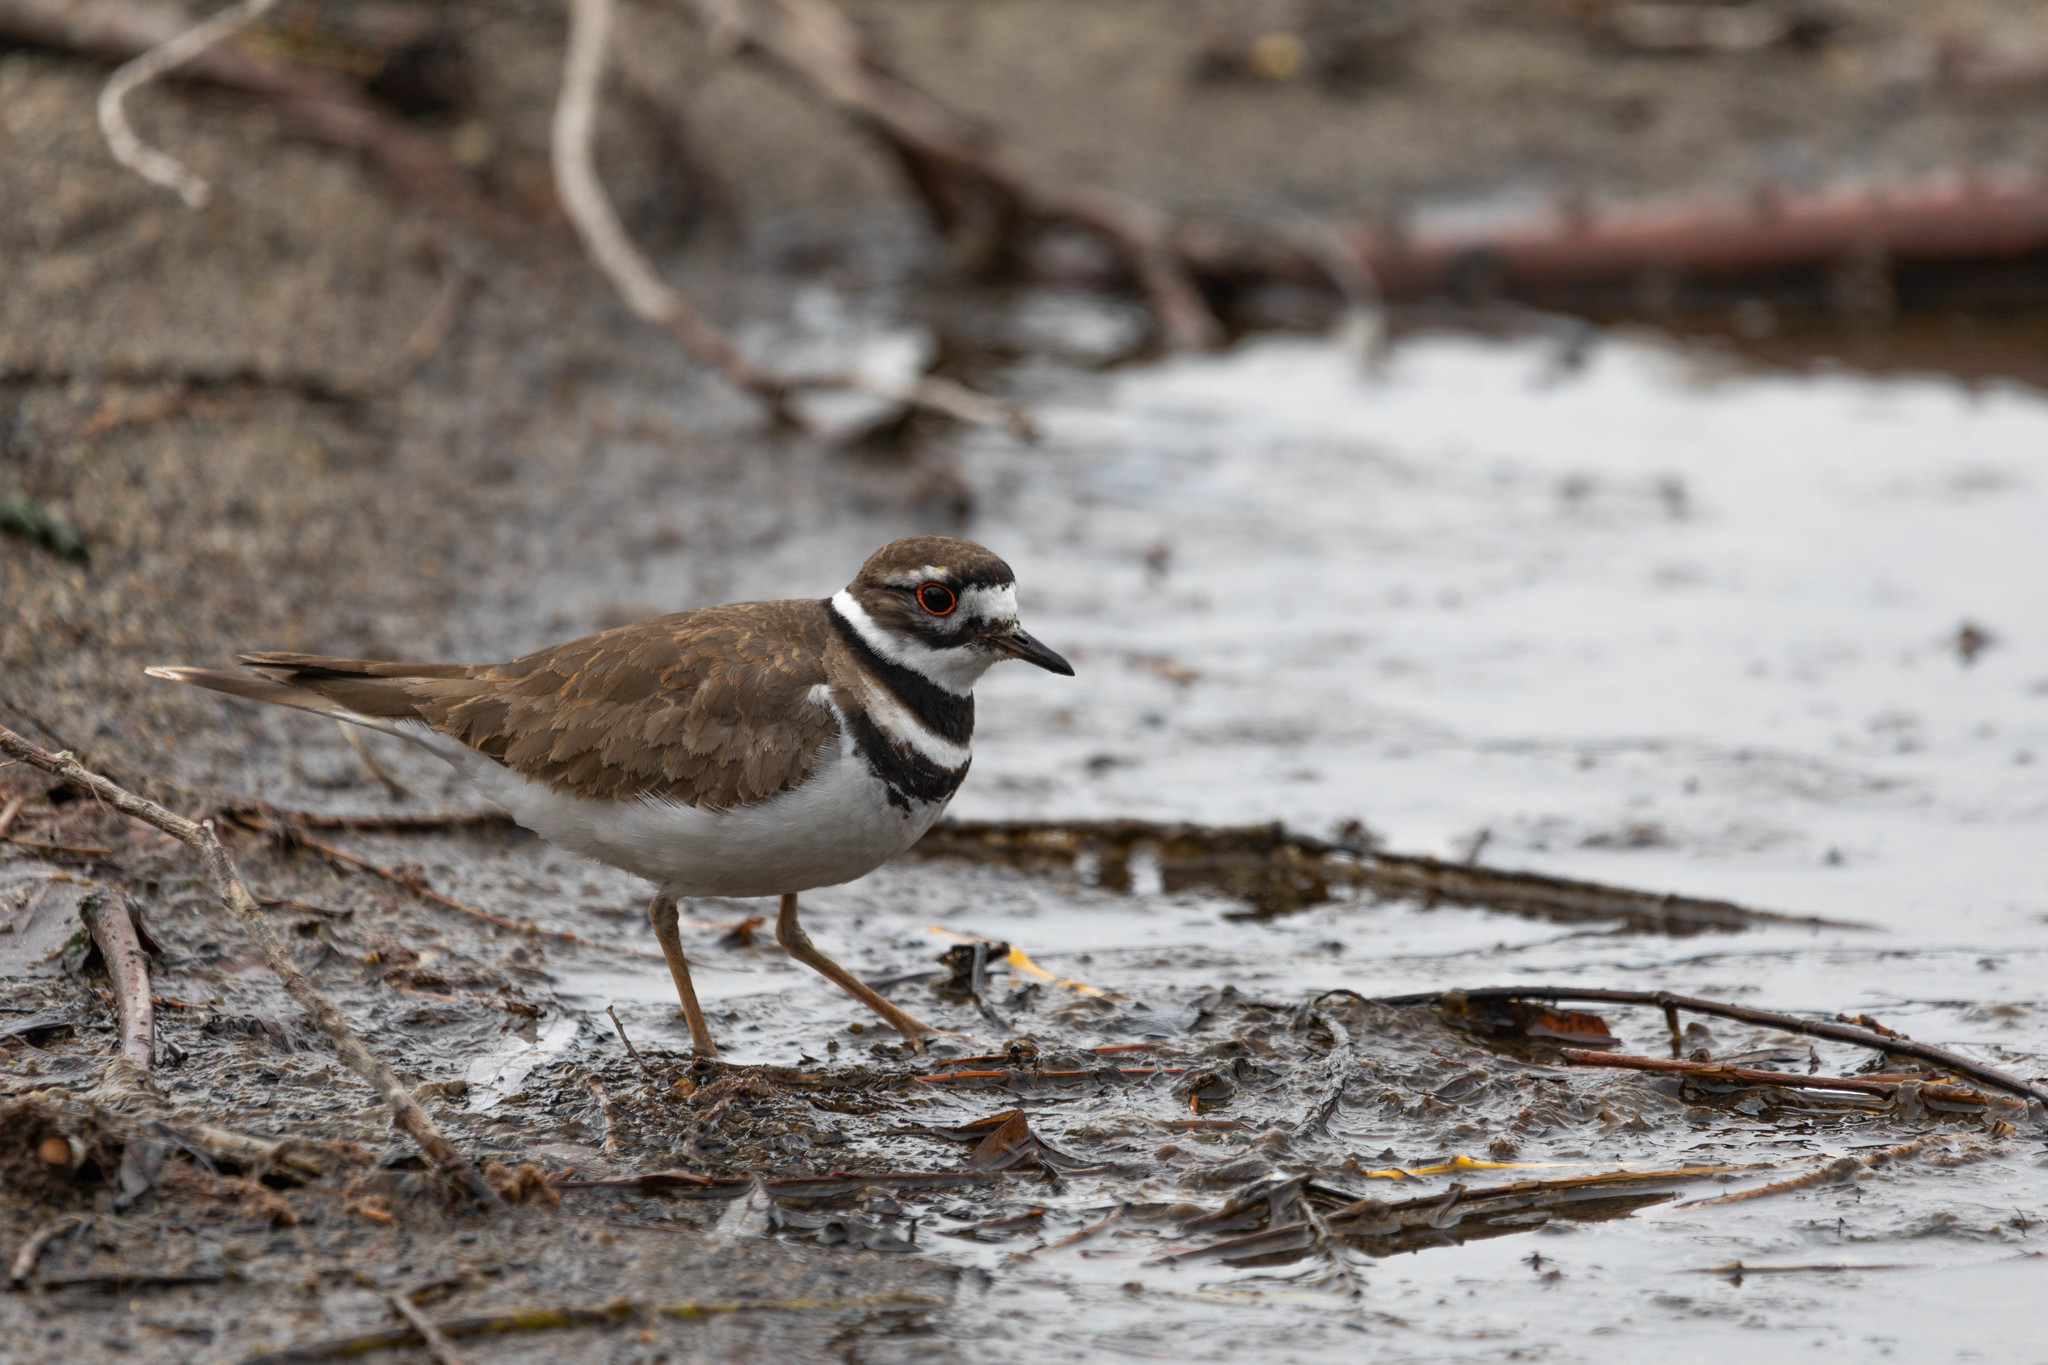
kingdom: Animalia
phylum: Chordata
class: Aves
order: Charadriiformes
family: Charadriidae
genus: Charadrius
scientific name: Charadrius vociferus
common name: Killdeer
